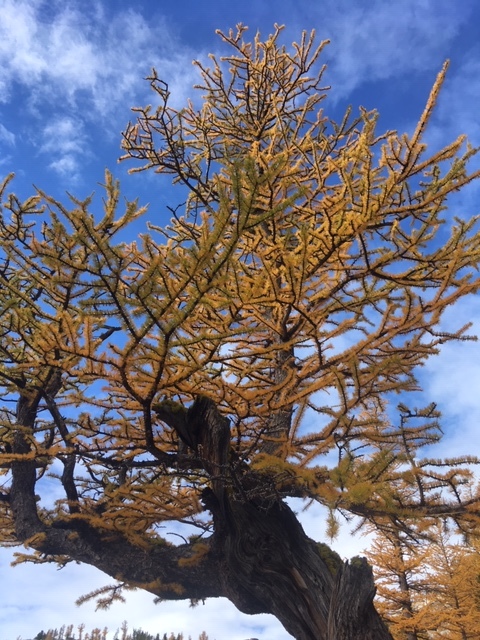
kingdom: Plantae
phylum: Tracheophyta
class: Pinopsida
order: Pinales
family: Pinaceae
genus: Larix
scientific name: Larix lyallii
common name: Alpine larch
